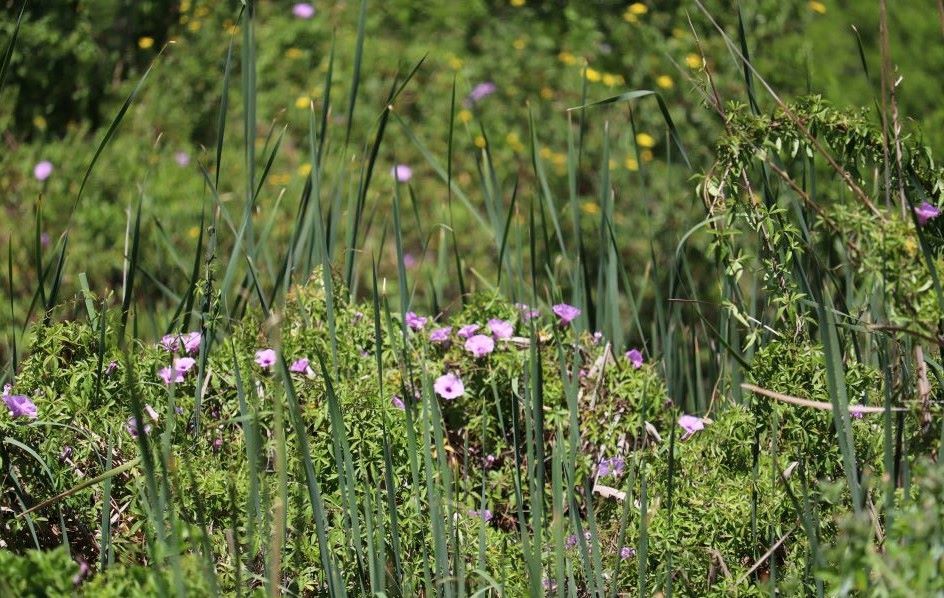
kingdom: Plantae
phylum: Tracheophyta
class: Magnoliopsida
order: Solanales
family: Convolvulaceae
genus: Ipomoea
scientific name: Ipomoea cairica
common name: Mile a minute vine
